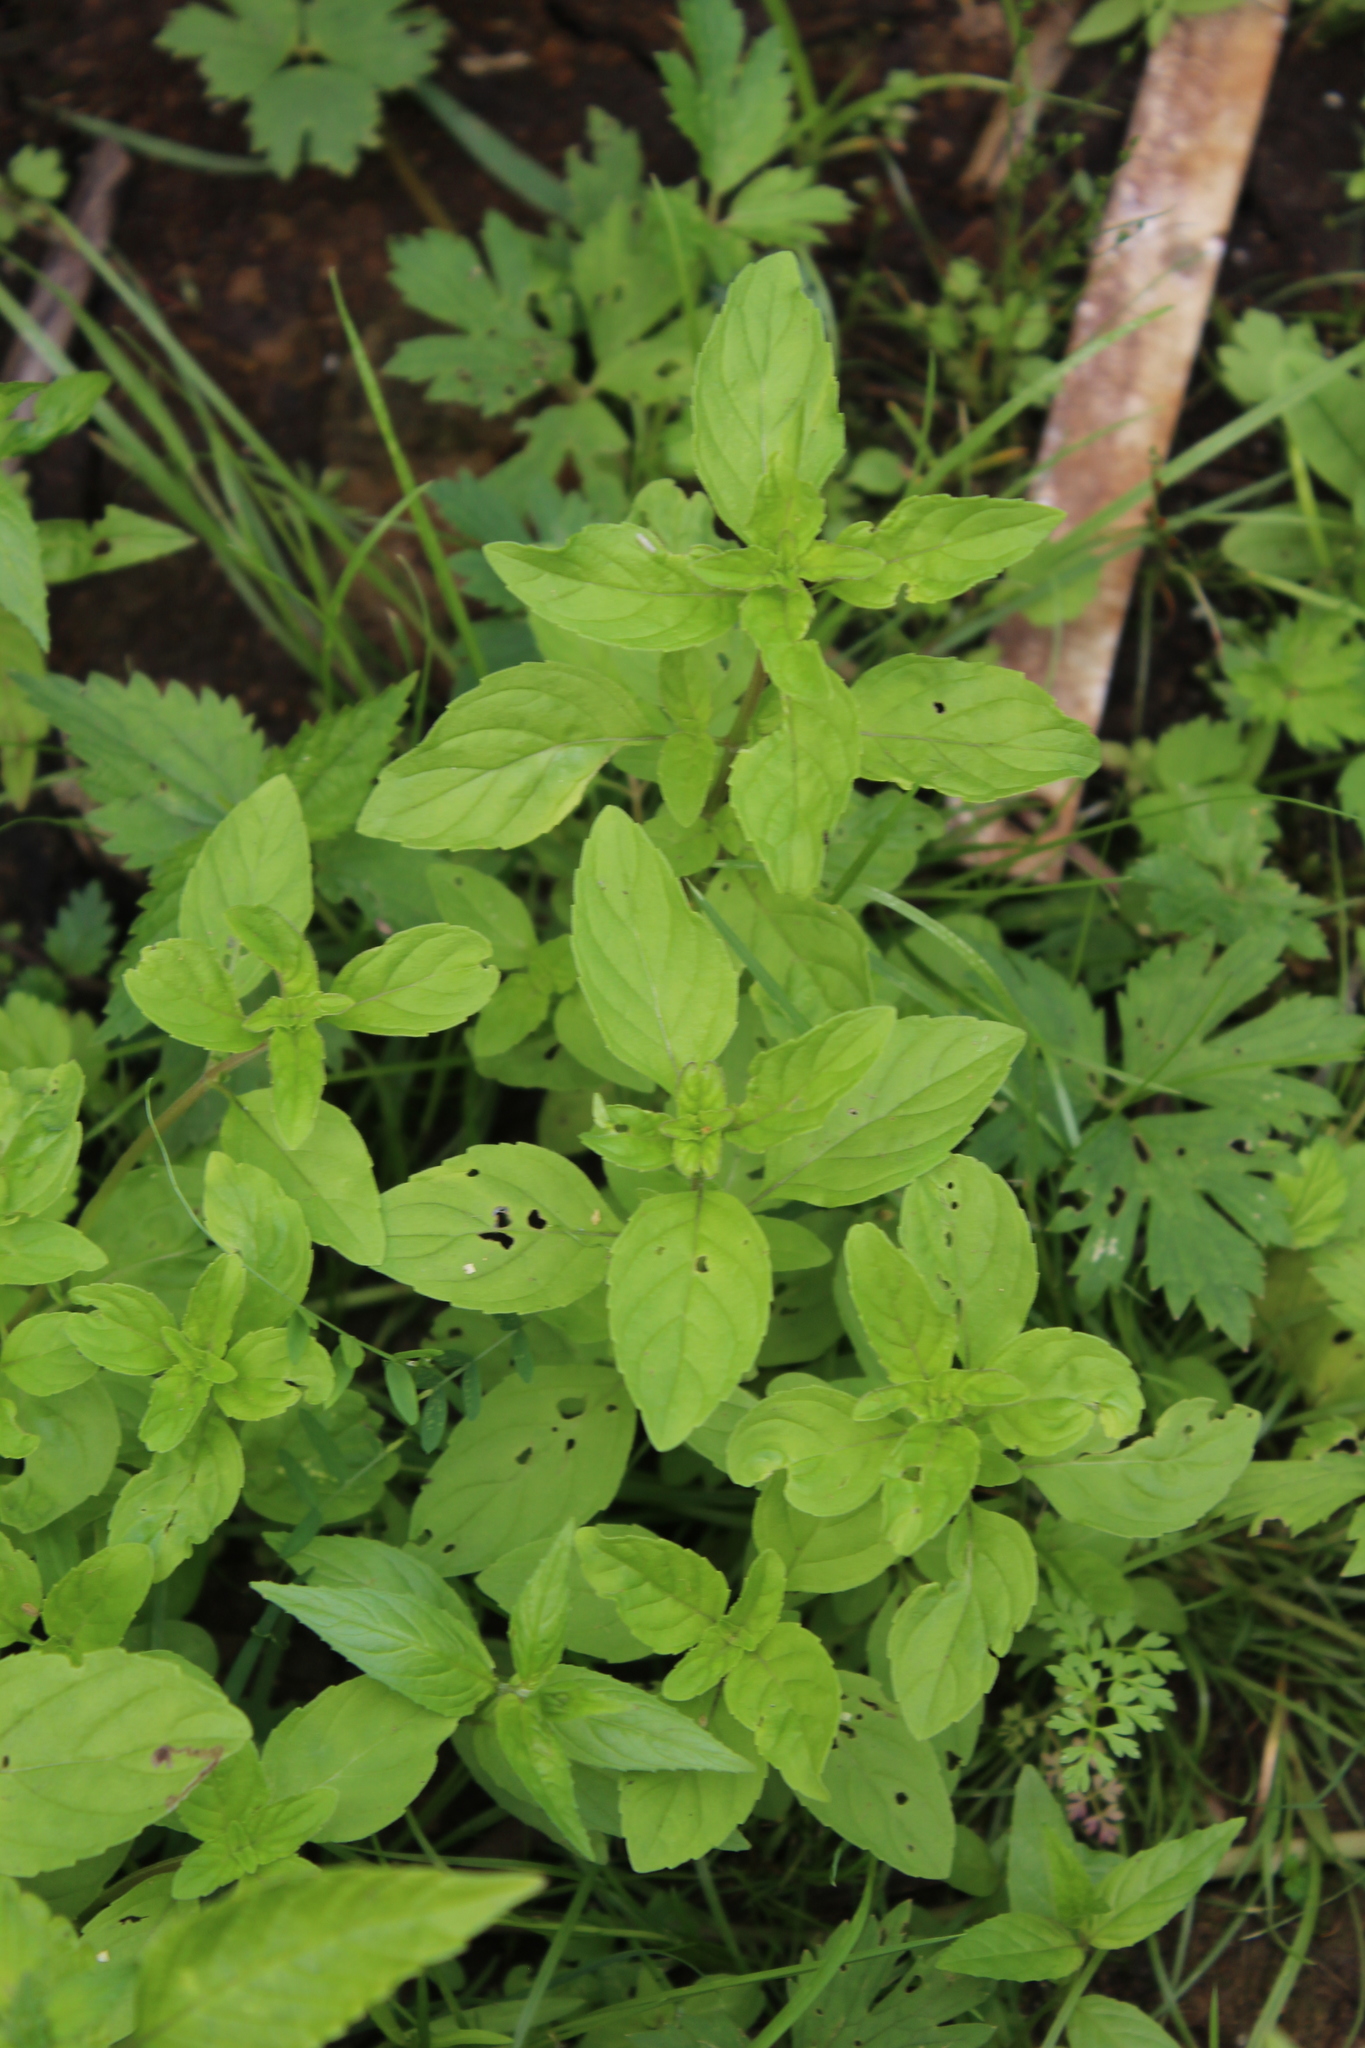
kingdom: Plantae
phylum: Tracheophyta
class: Magnoliopsida
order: Lamiales
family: Lamiaceae
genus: Mentha
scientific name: Mentha arvensis
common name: Corn mint
